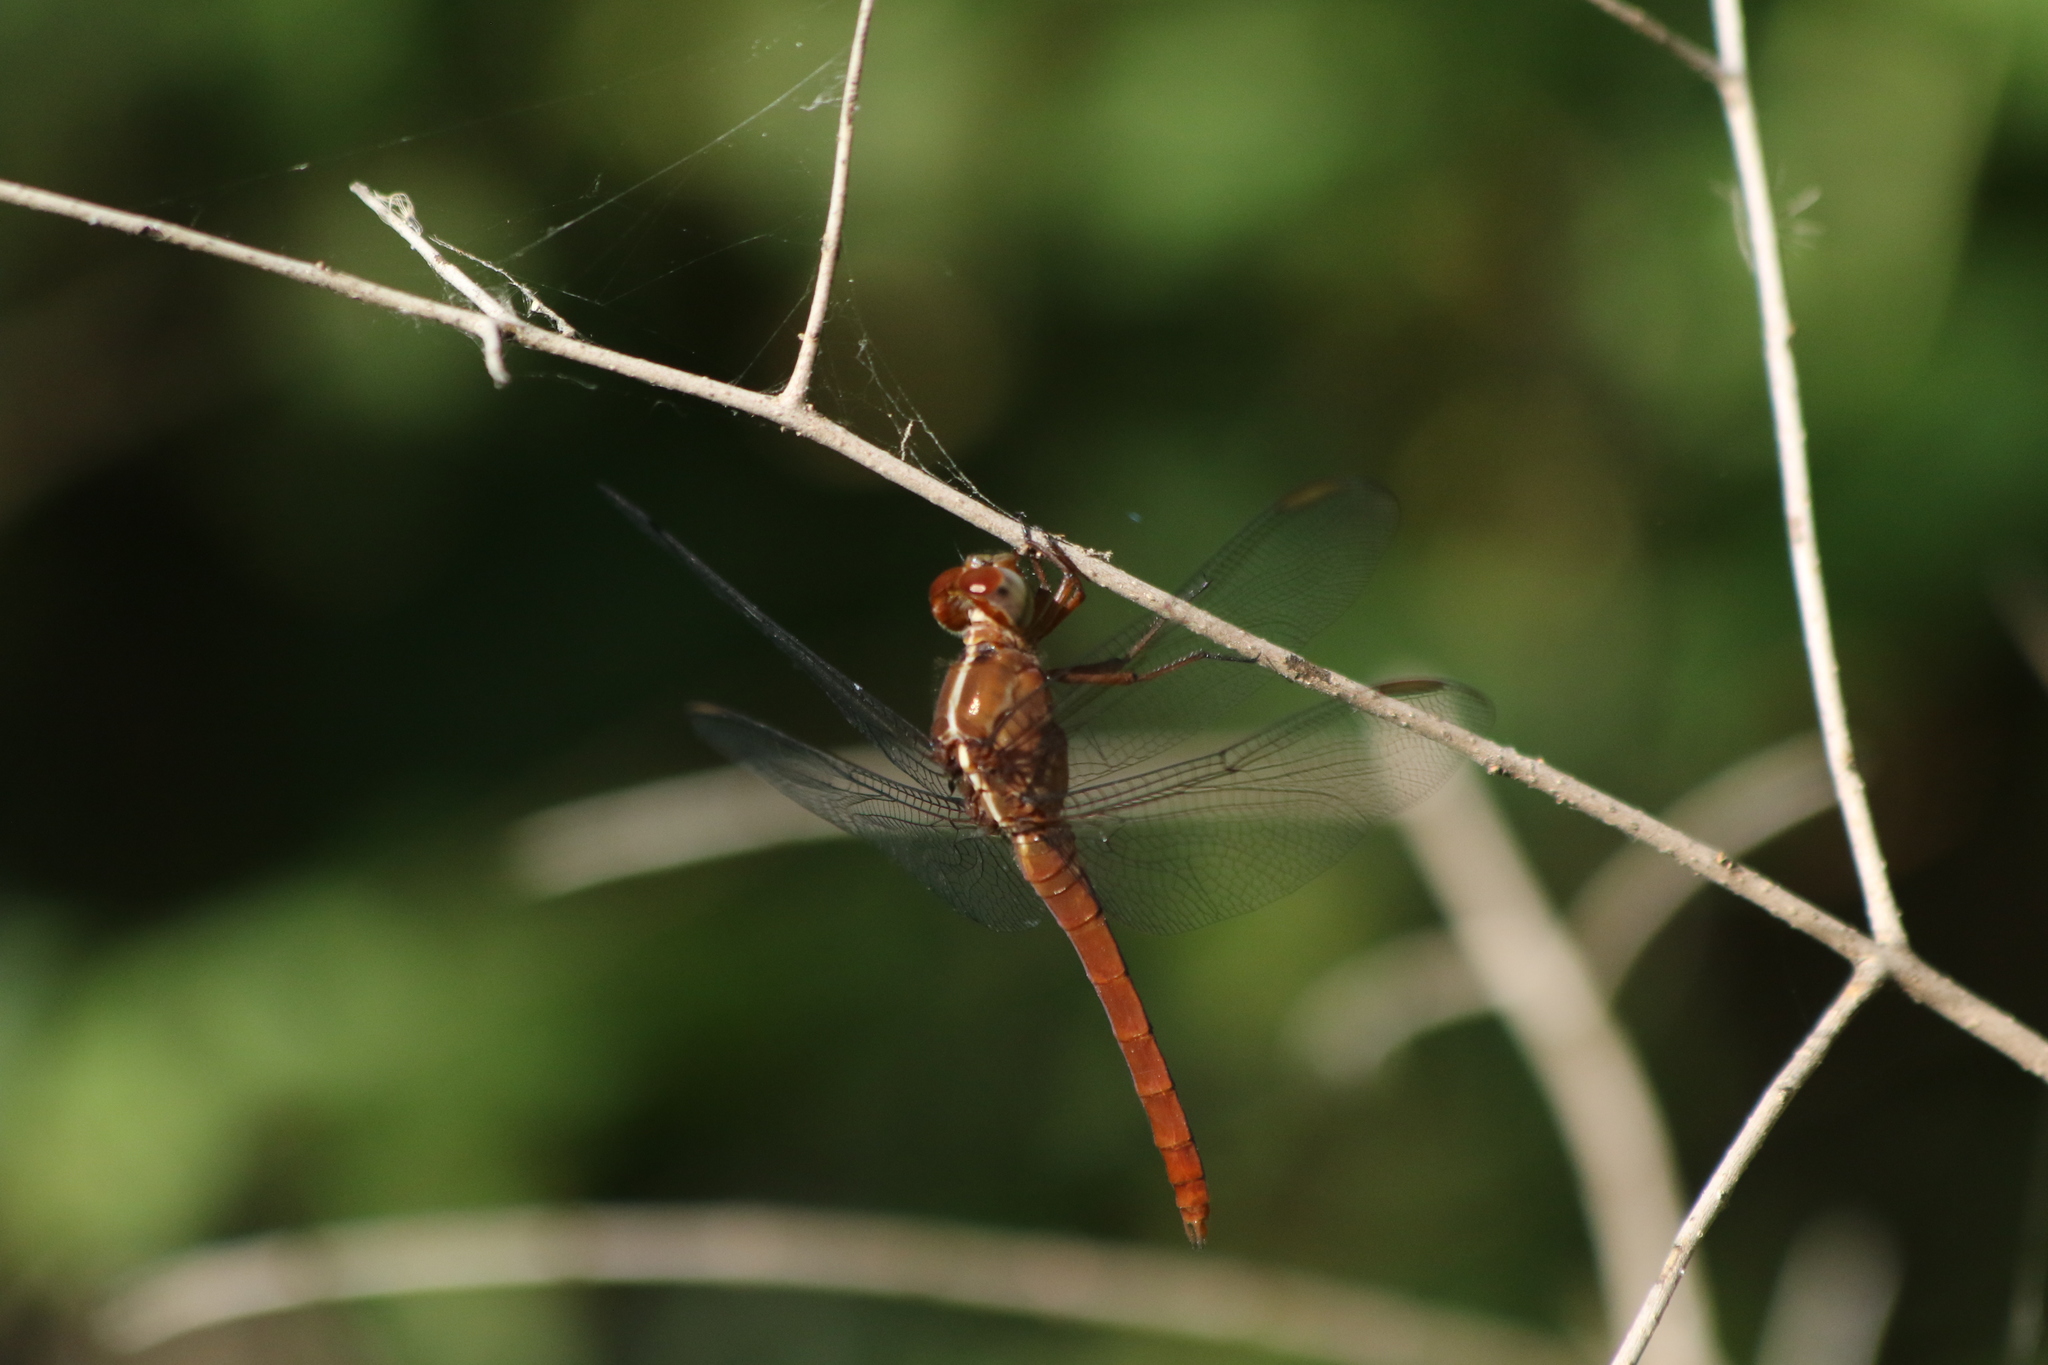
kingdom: Animalia
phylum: Arthropoda
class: Insecta
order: Odonata
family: Libellulidae
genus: Orthemis
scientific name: Orthemis discolor
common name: Carmine skimmer
